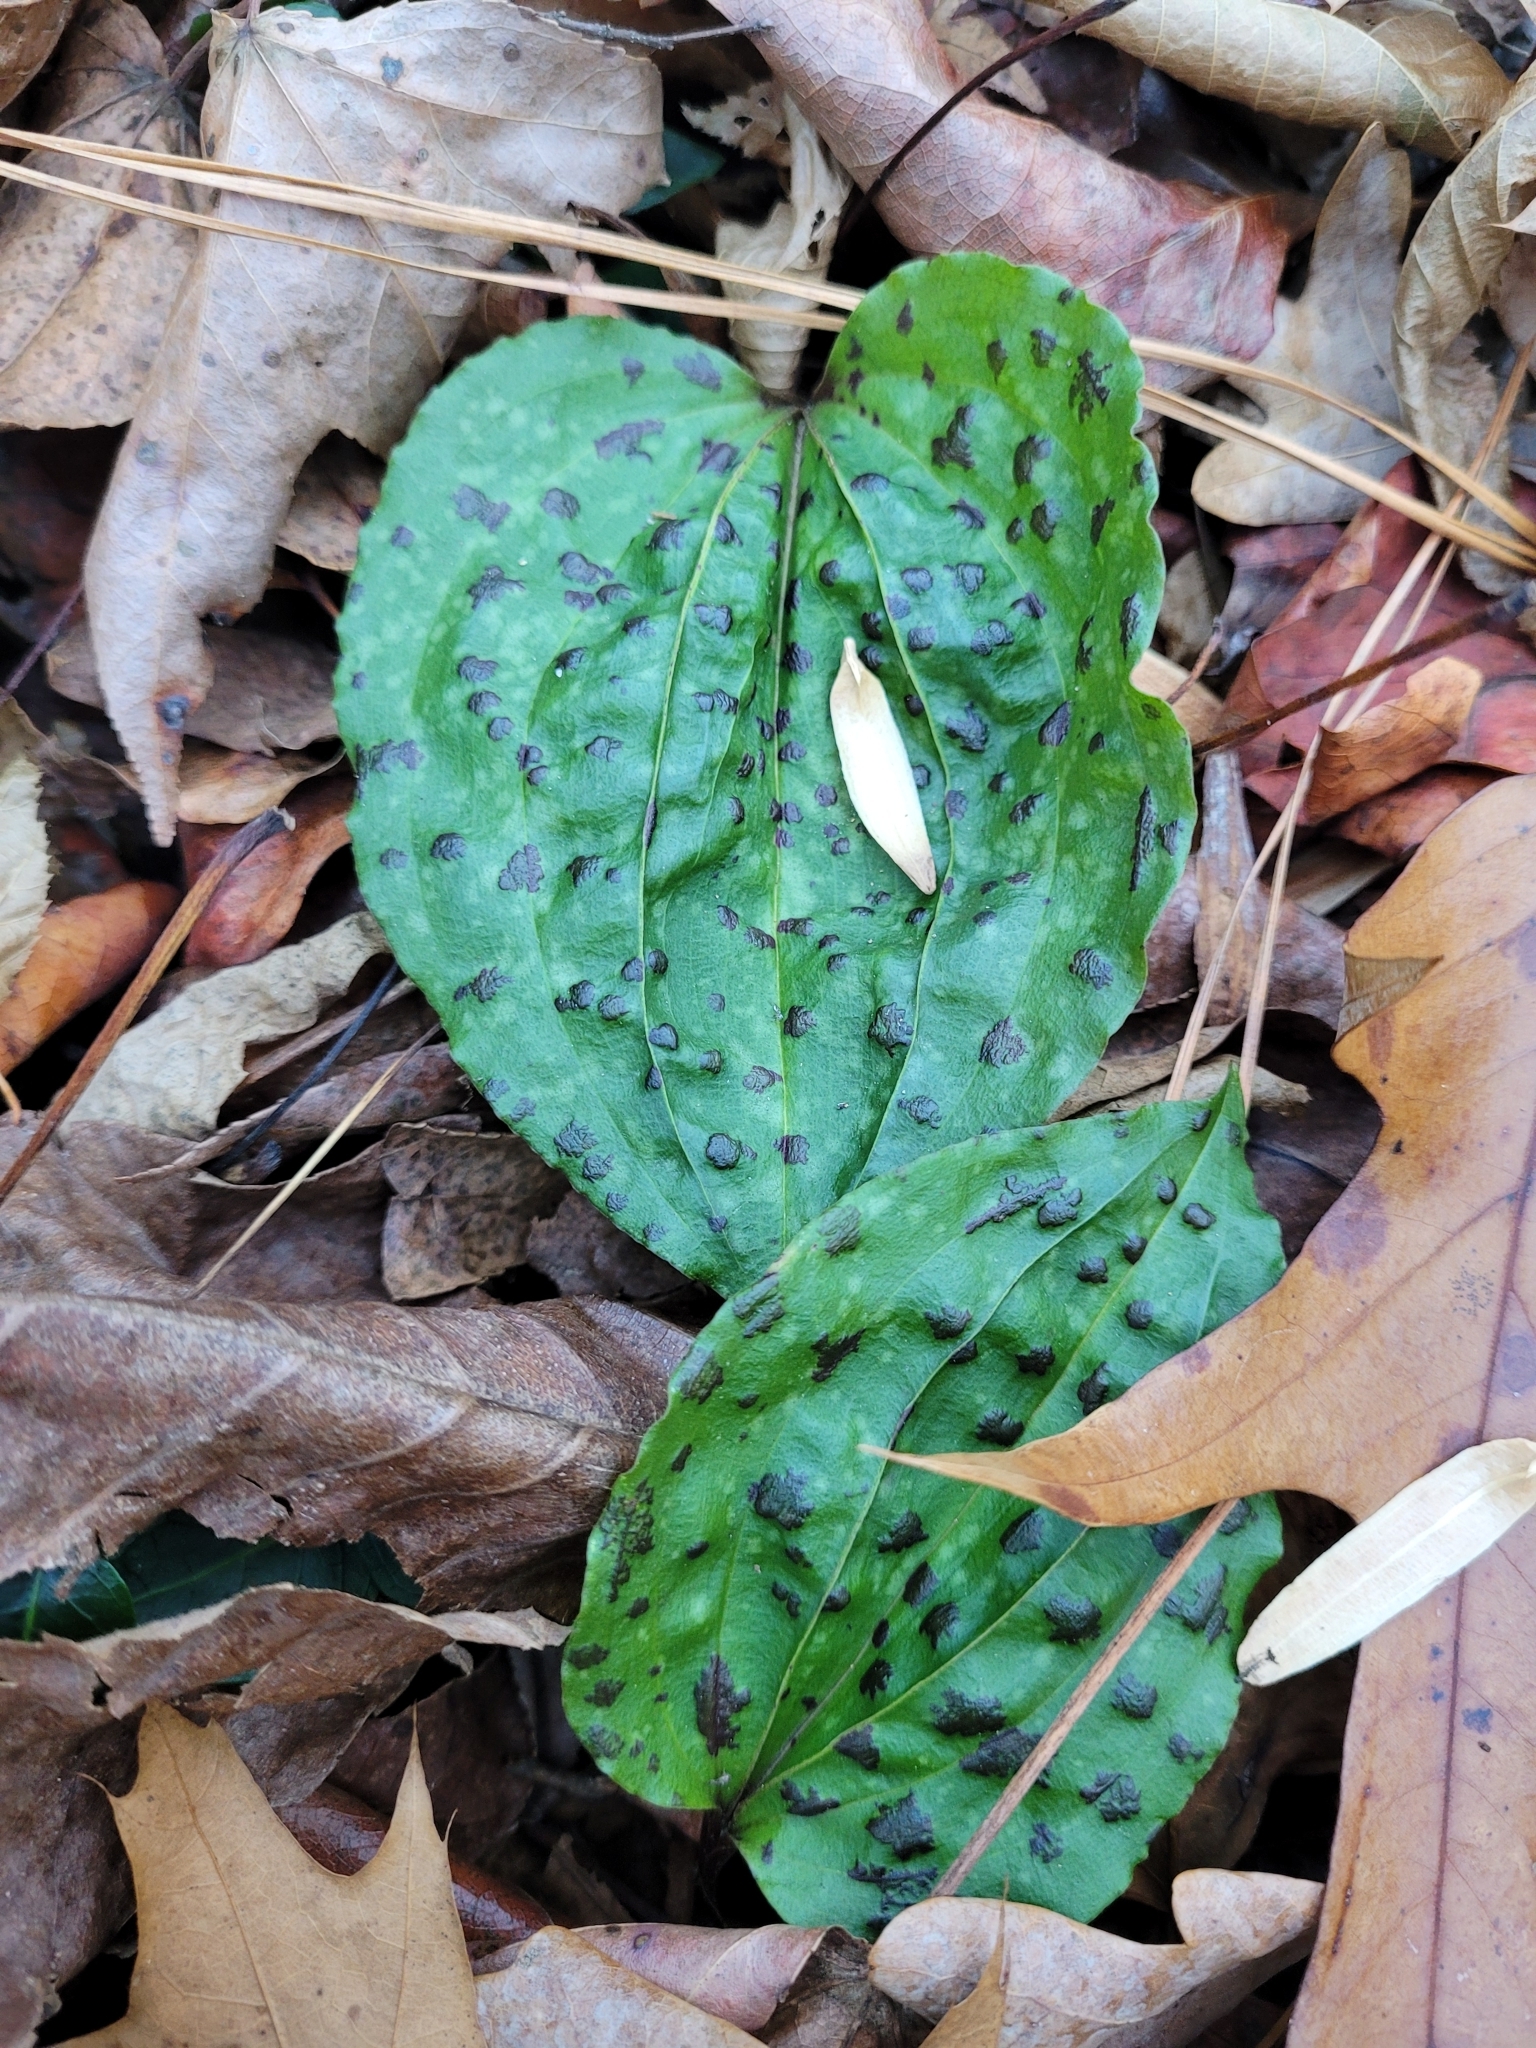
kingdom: Plantae
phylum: Tracheophyta
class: Liliopsida
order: Asparagales
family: Orchidaceae
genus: Tipularia
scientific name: Tipularia discolor
